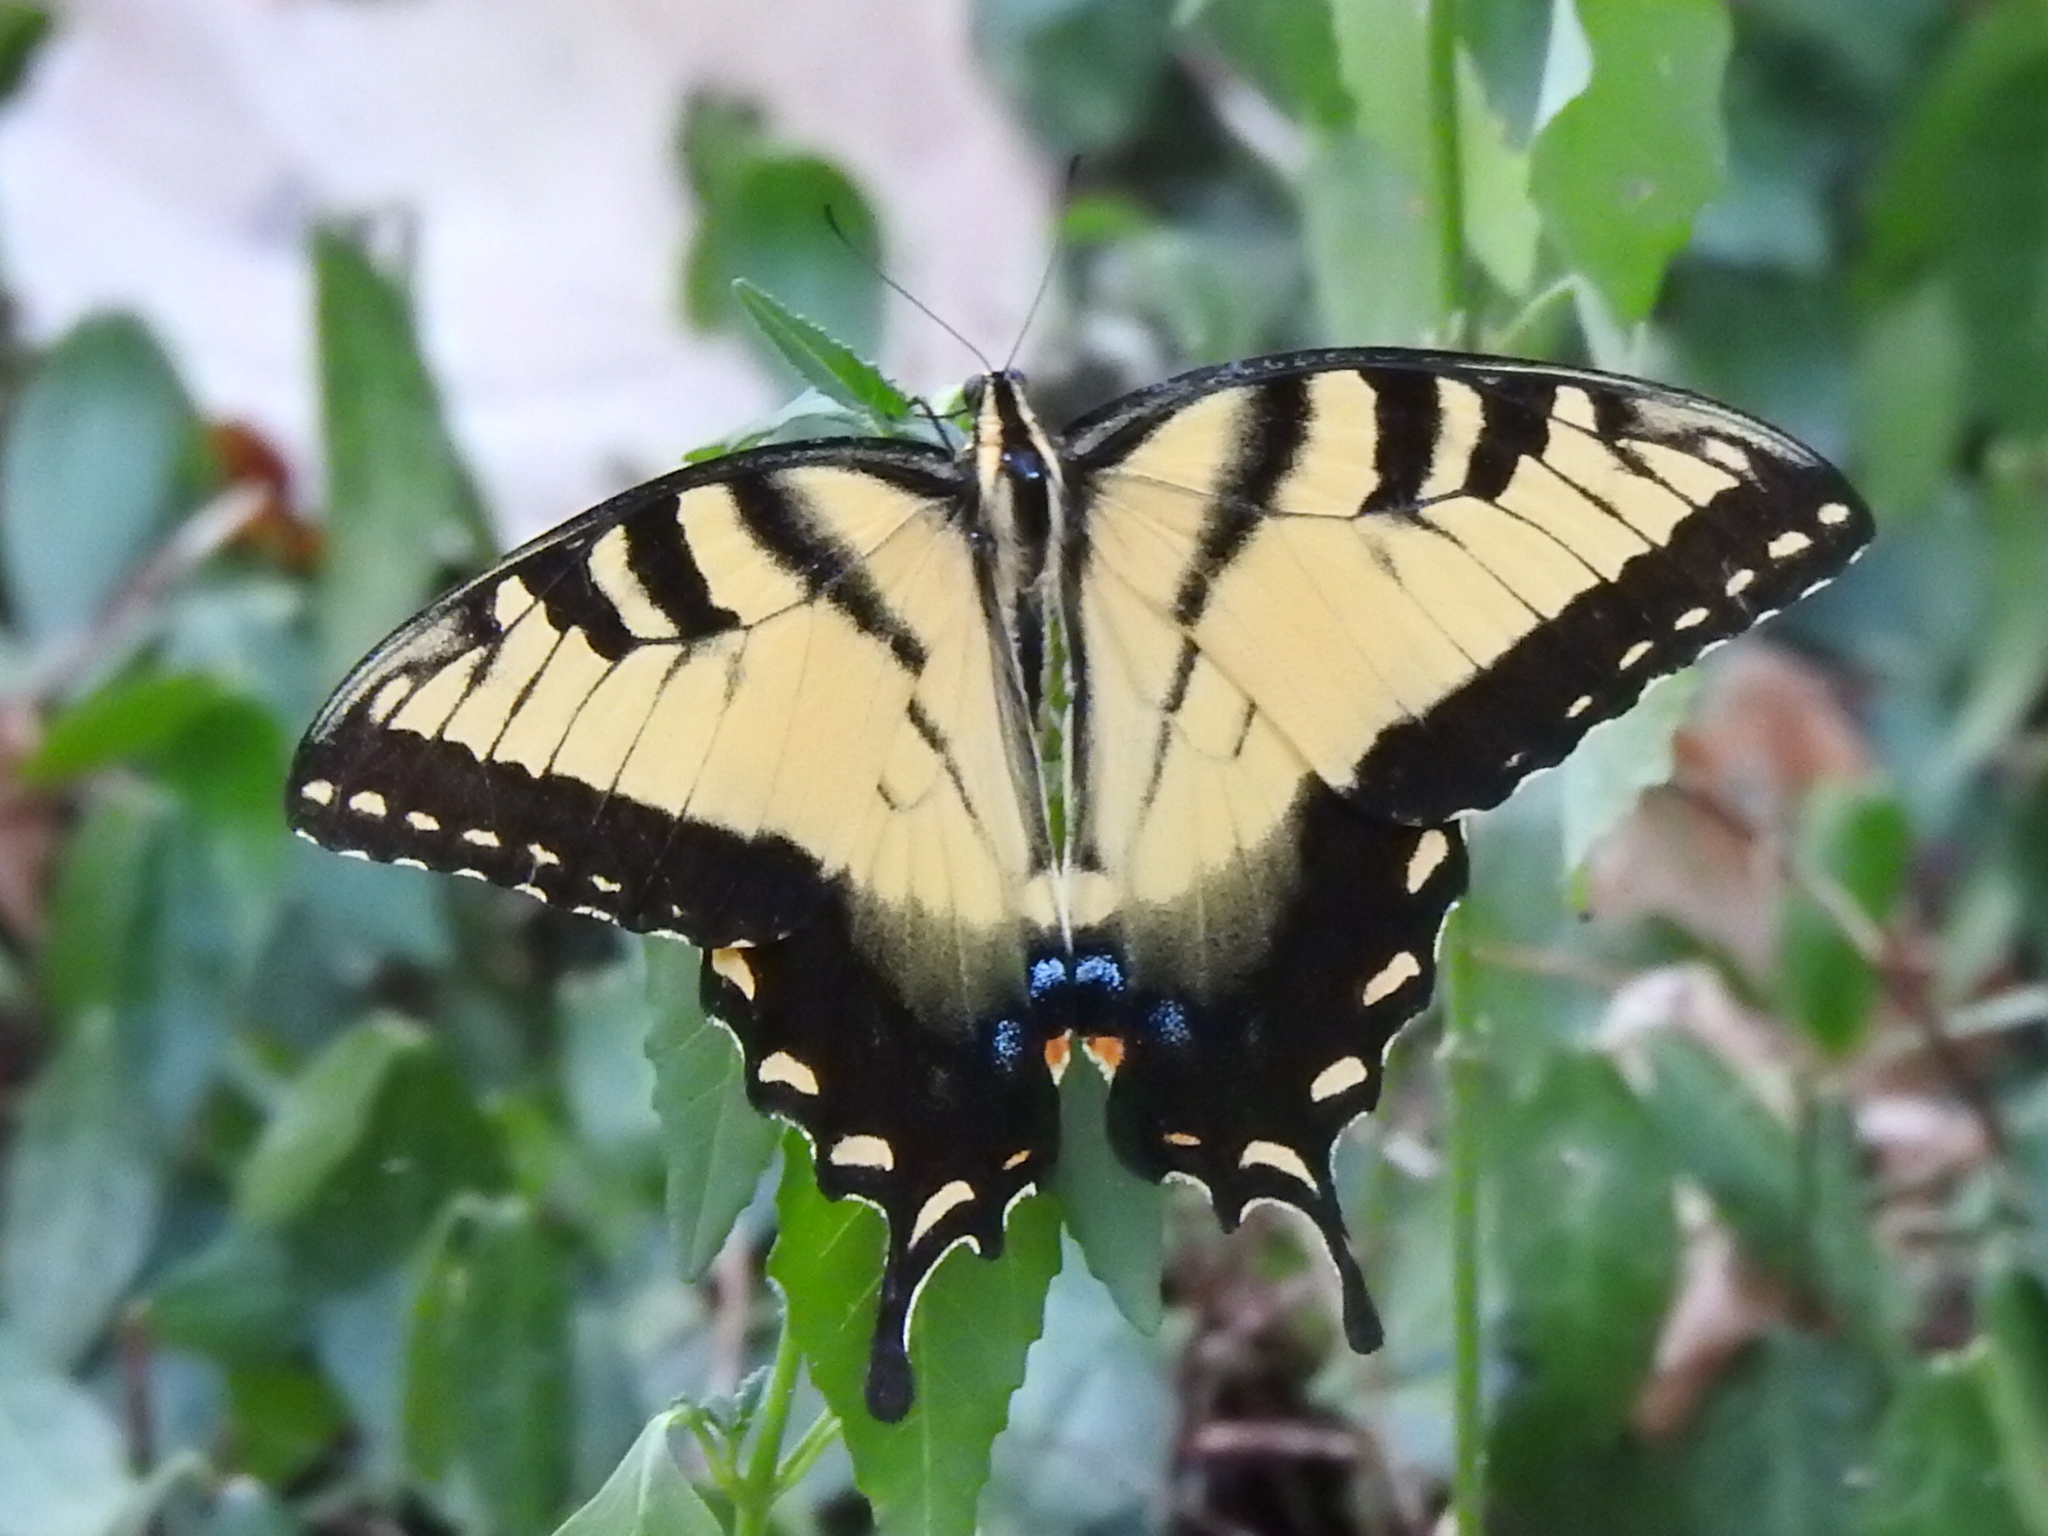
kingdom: Animalia
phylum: Arthropoda
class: Insecta
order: Lepidoptera
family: Papilionidae
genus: Papilio
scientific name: Papilio glaucus
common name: Tiger swallowtail
